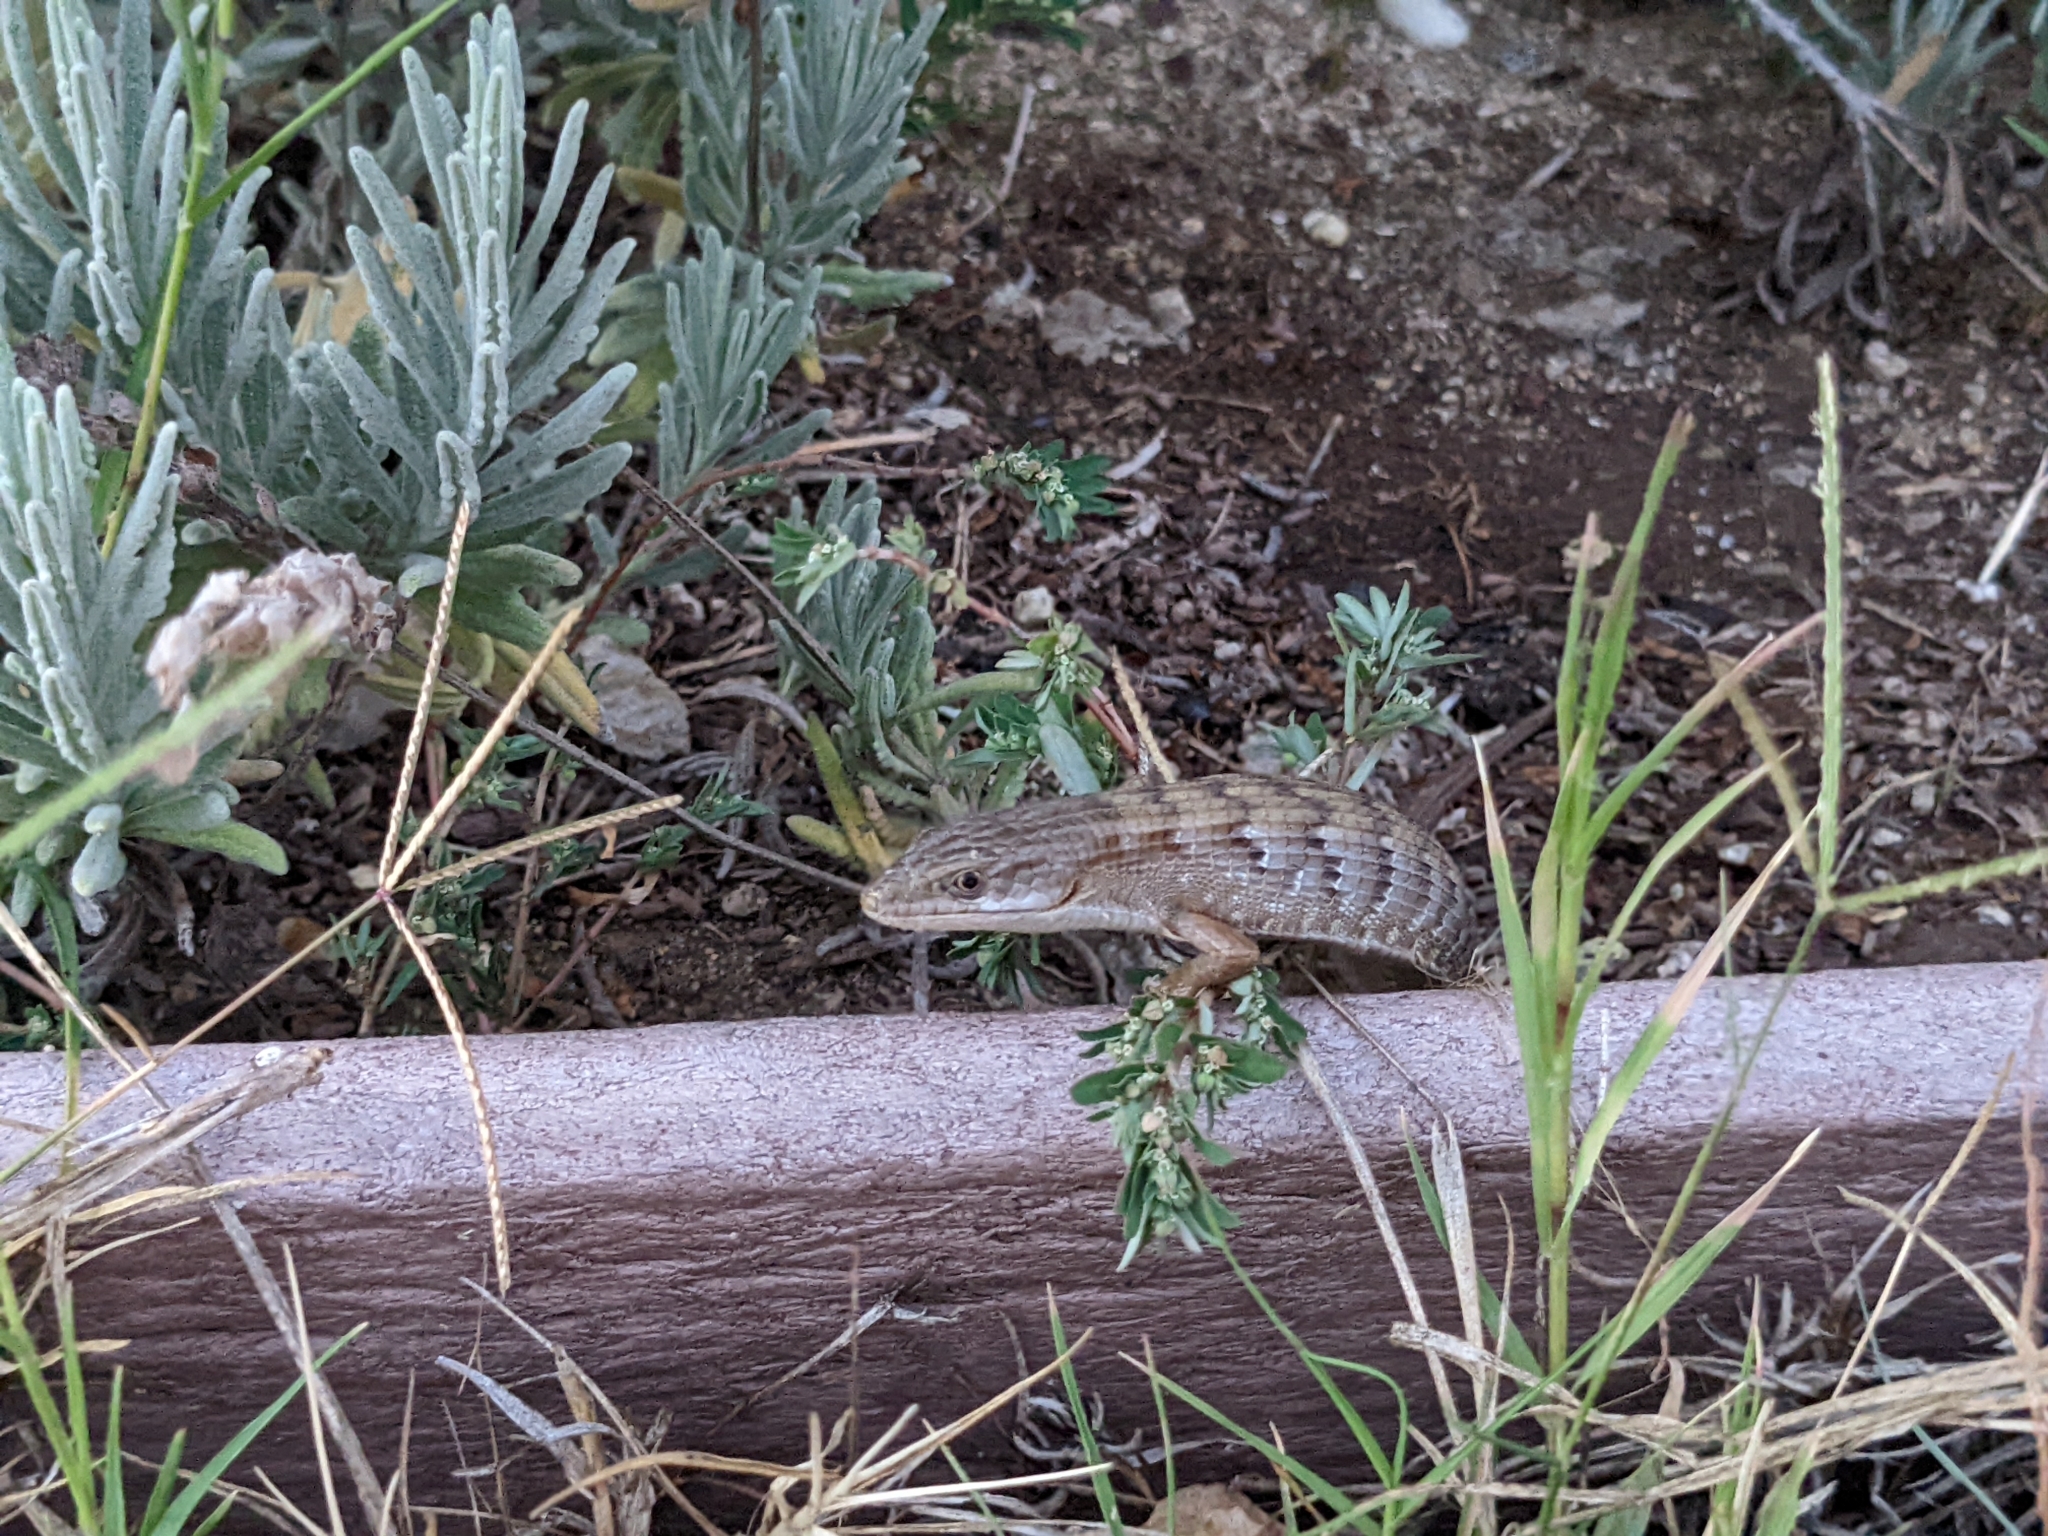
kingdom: Animalia
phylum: Chordata
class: Squamata
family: Anguidae
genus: Elgaria
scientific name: Elgaria multicarinata
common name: Southern alligator lizard
